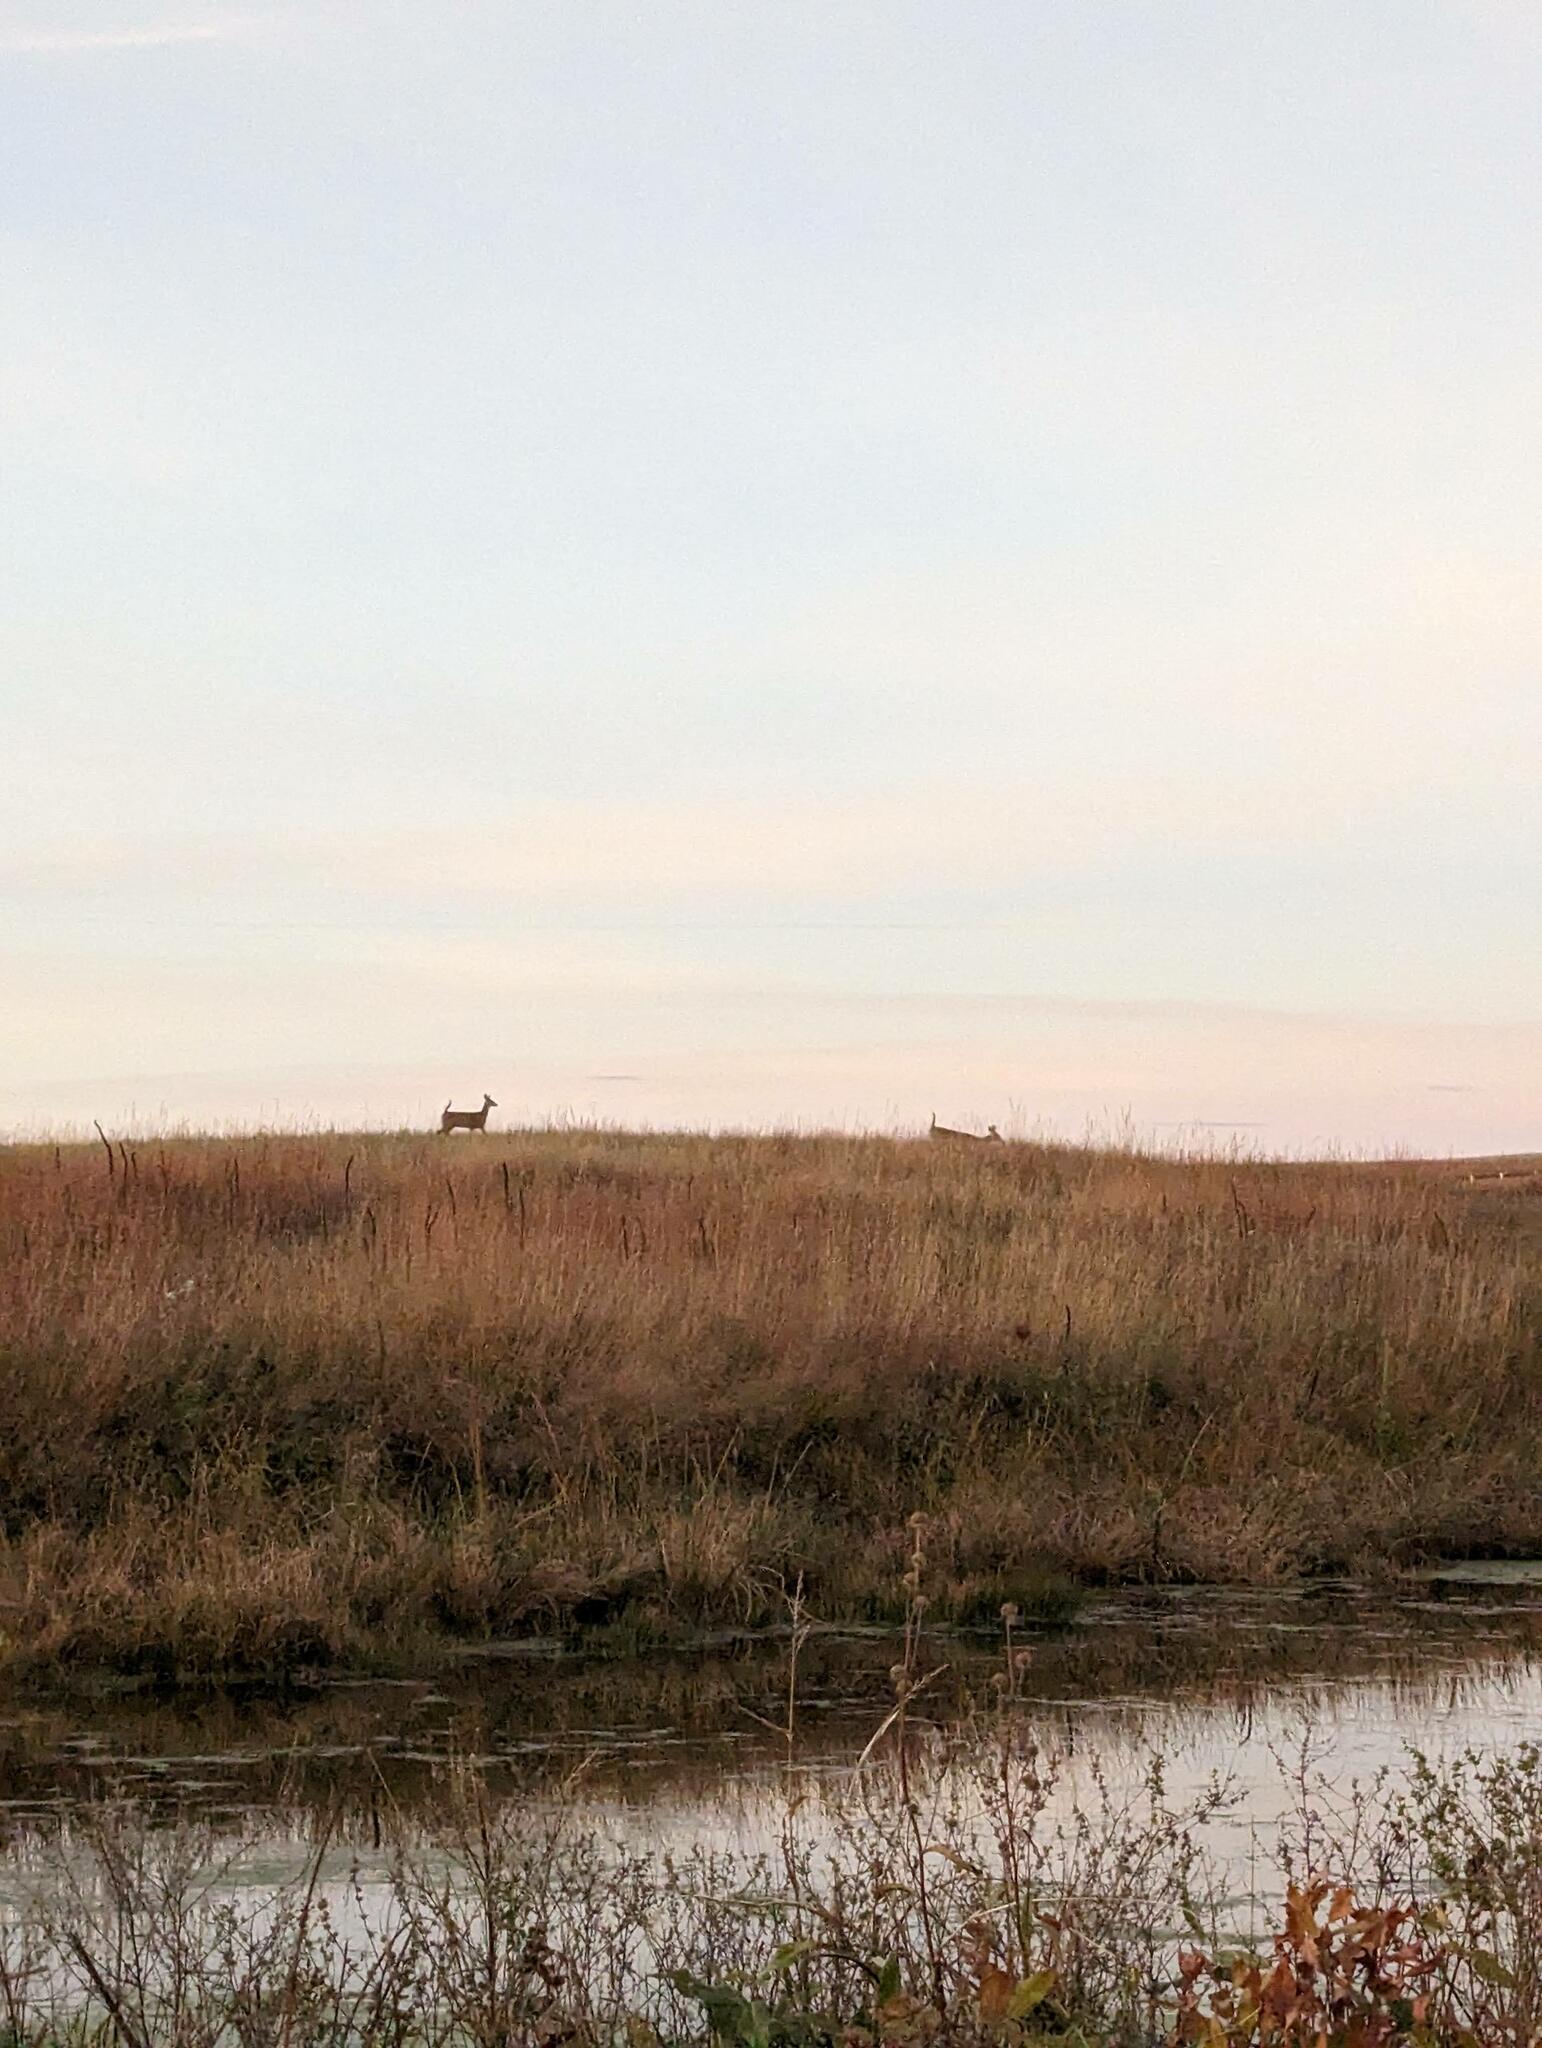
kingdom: Animalia
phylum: Chordata
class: Mammalia
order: Artiodactyla
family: Cervidae
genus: Odocoileus
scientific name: Odocoileus virginianus
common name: White-tailed deer
